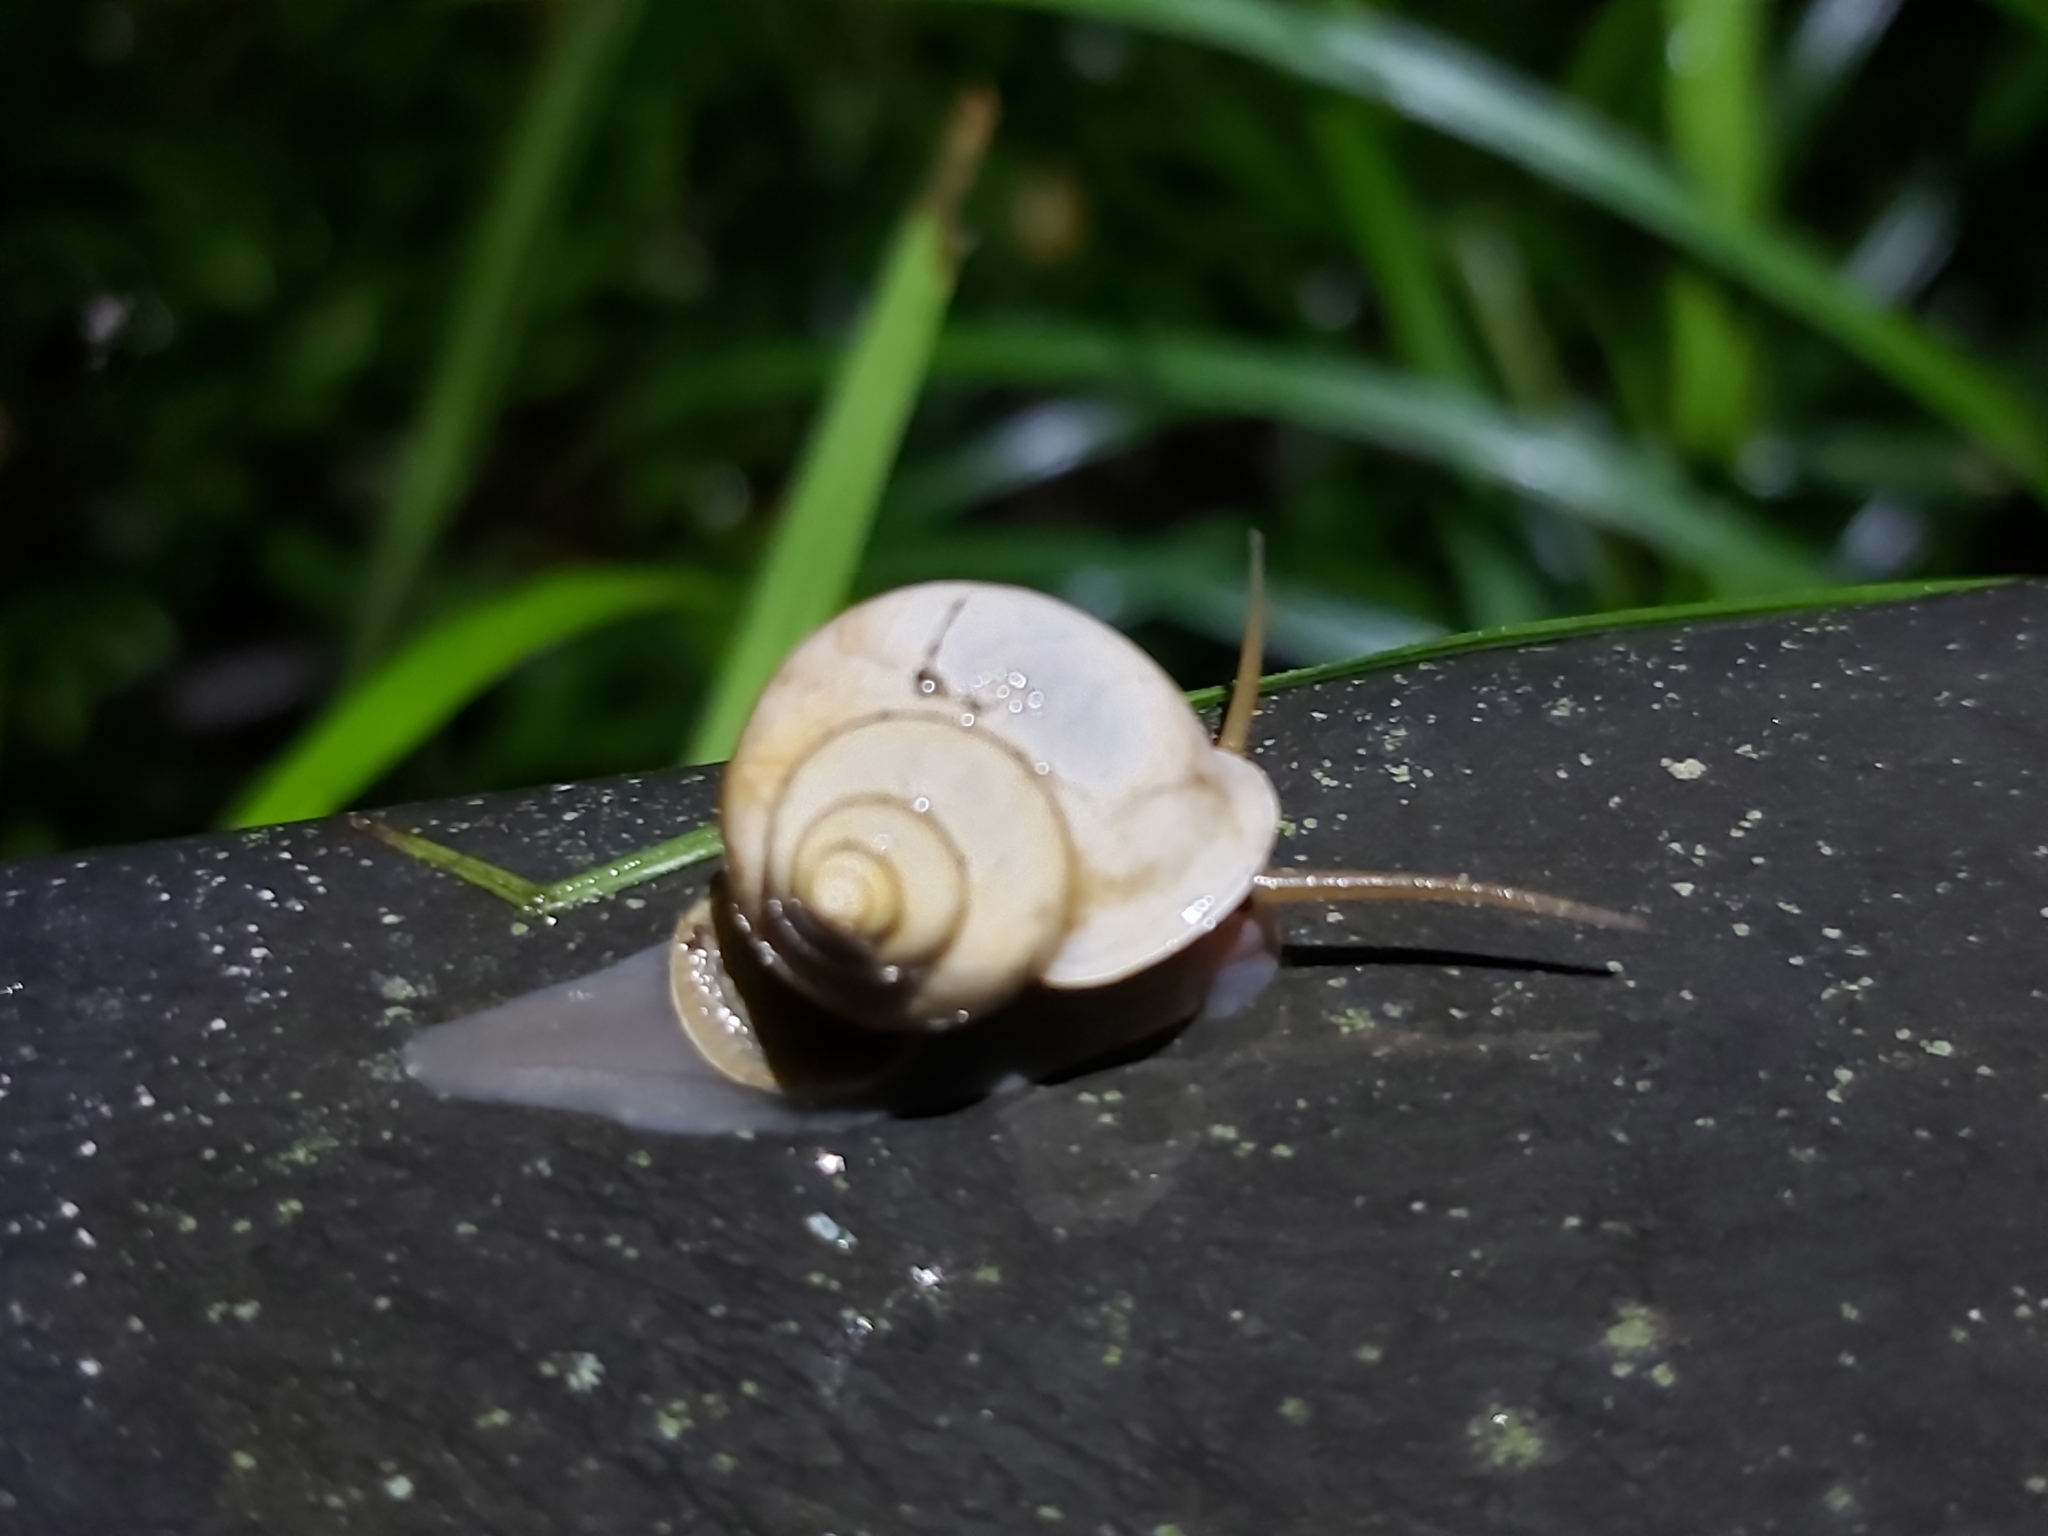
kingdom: Animalia
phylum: Mollusca
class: Gastropoda
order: Architaenioglossa
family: Cyclophoridae
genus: Leptopoma
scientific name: Leptopoma perlucidum
